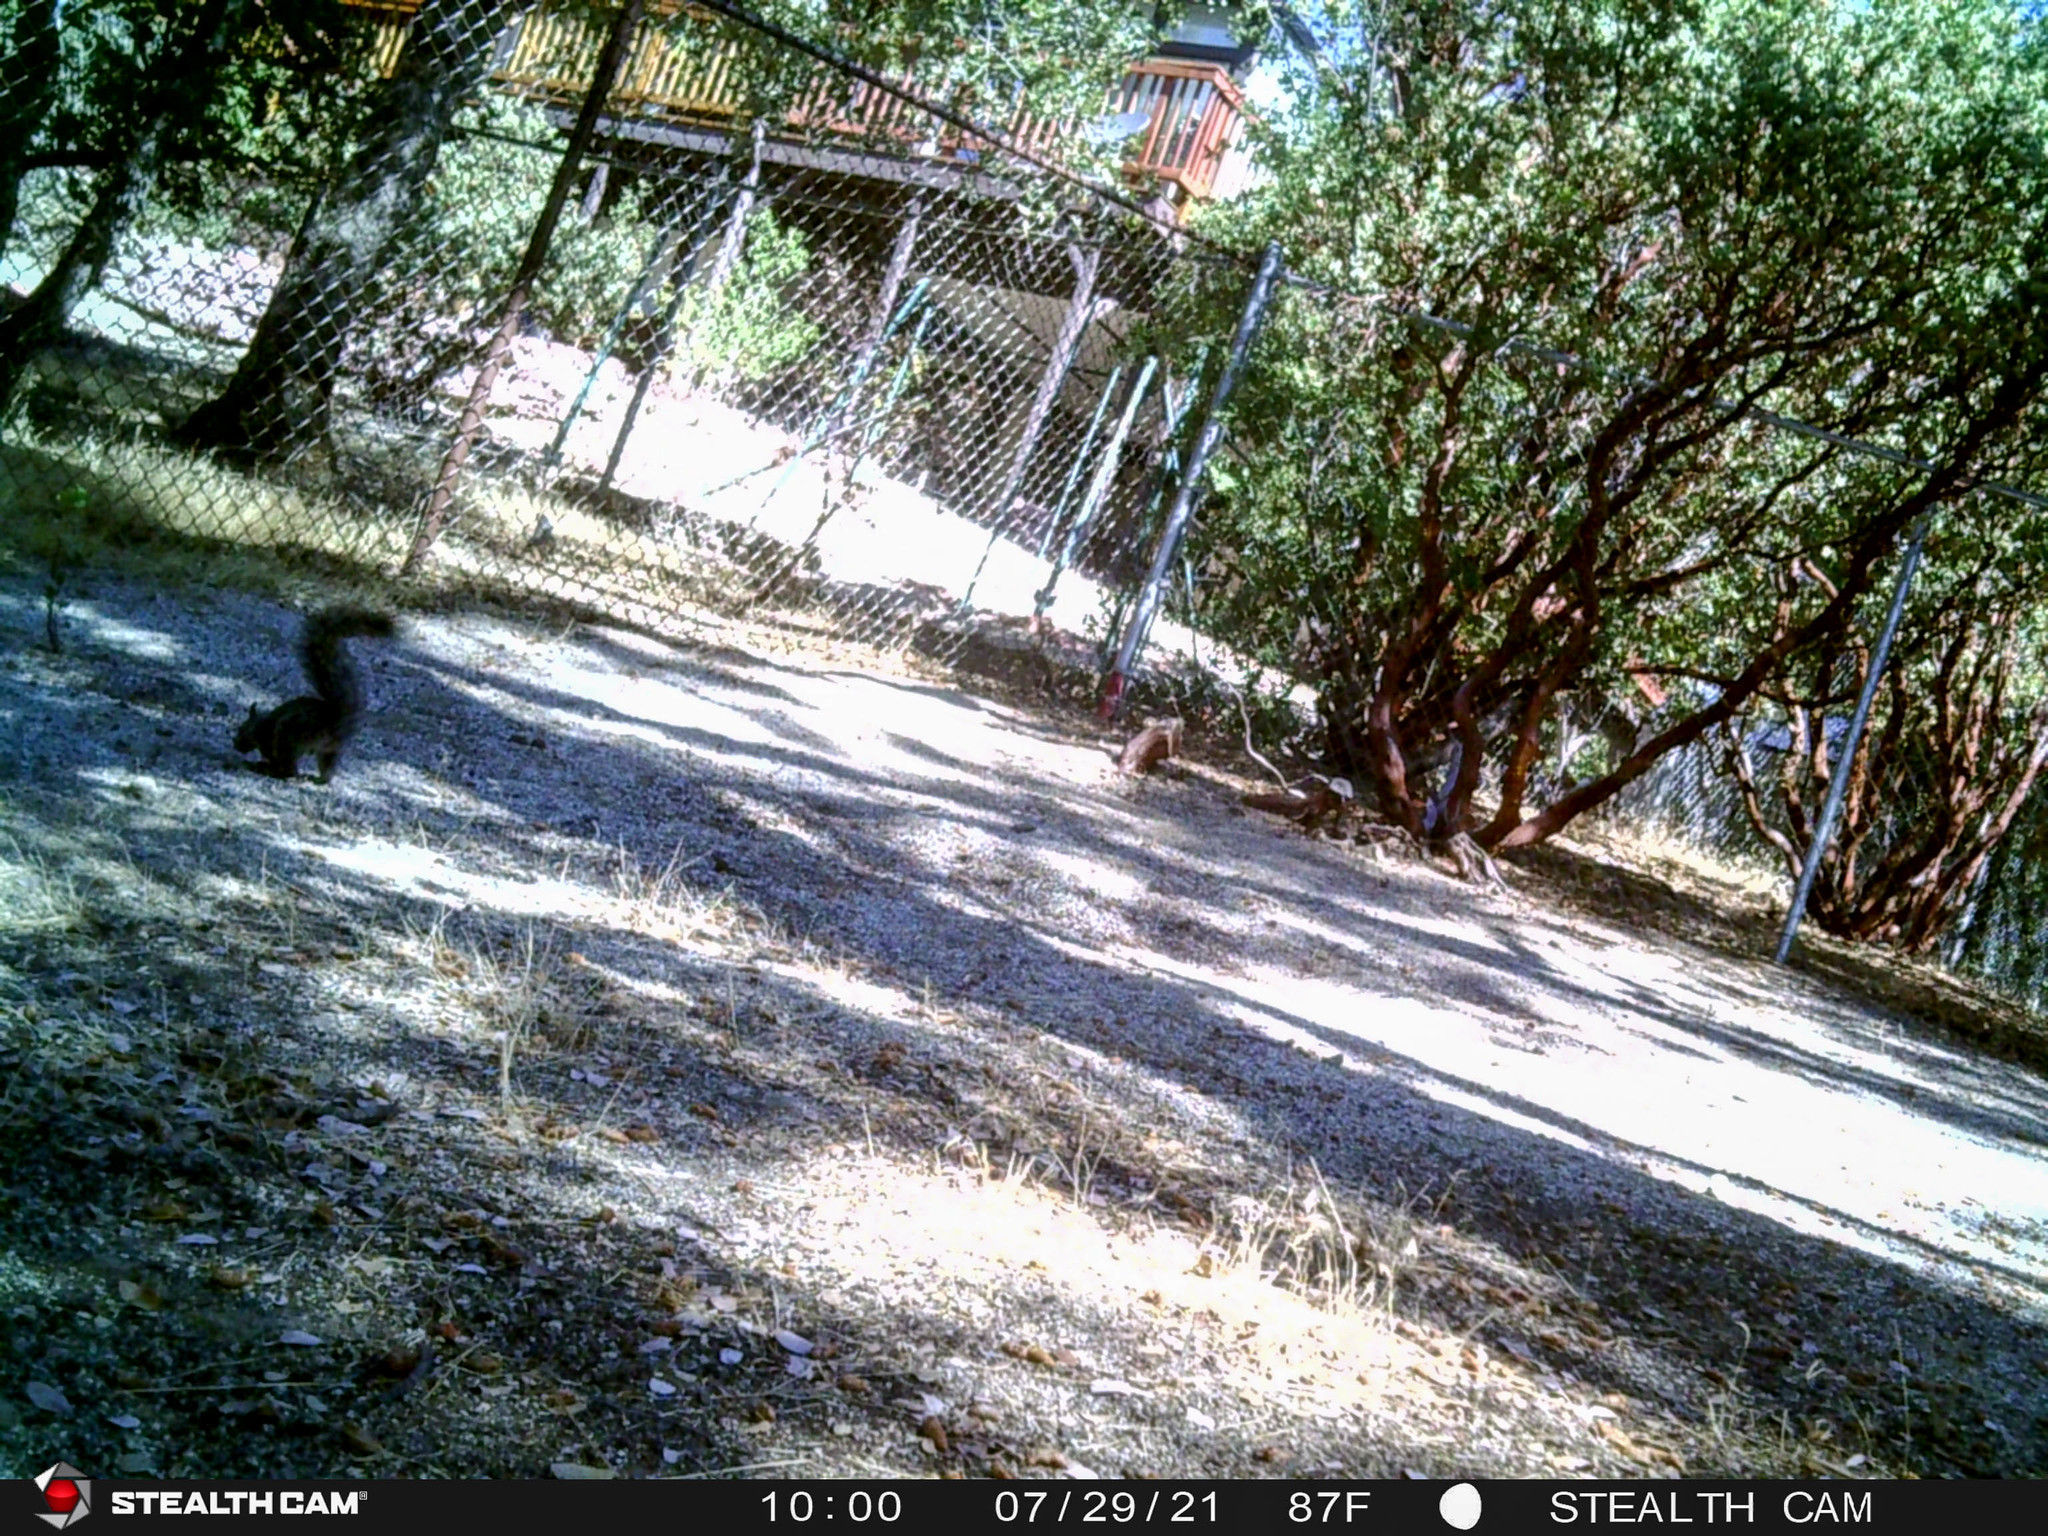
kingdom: Animalia
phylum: Chordata
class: Mammalia
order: Rodentia
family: Sciuridae
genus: Sciurus
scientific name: Sciurus griseus
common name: Western gray squirrel
